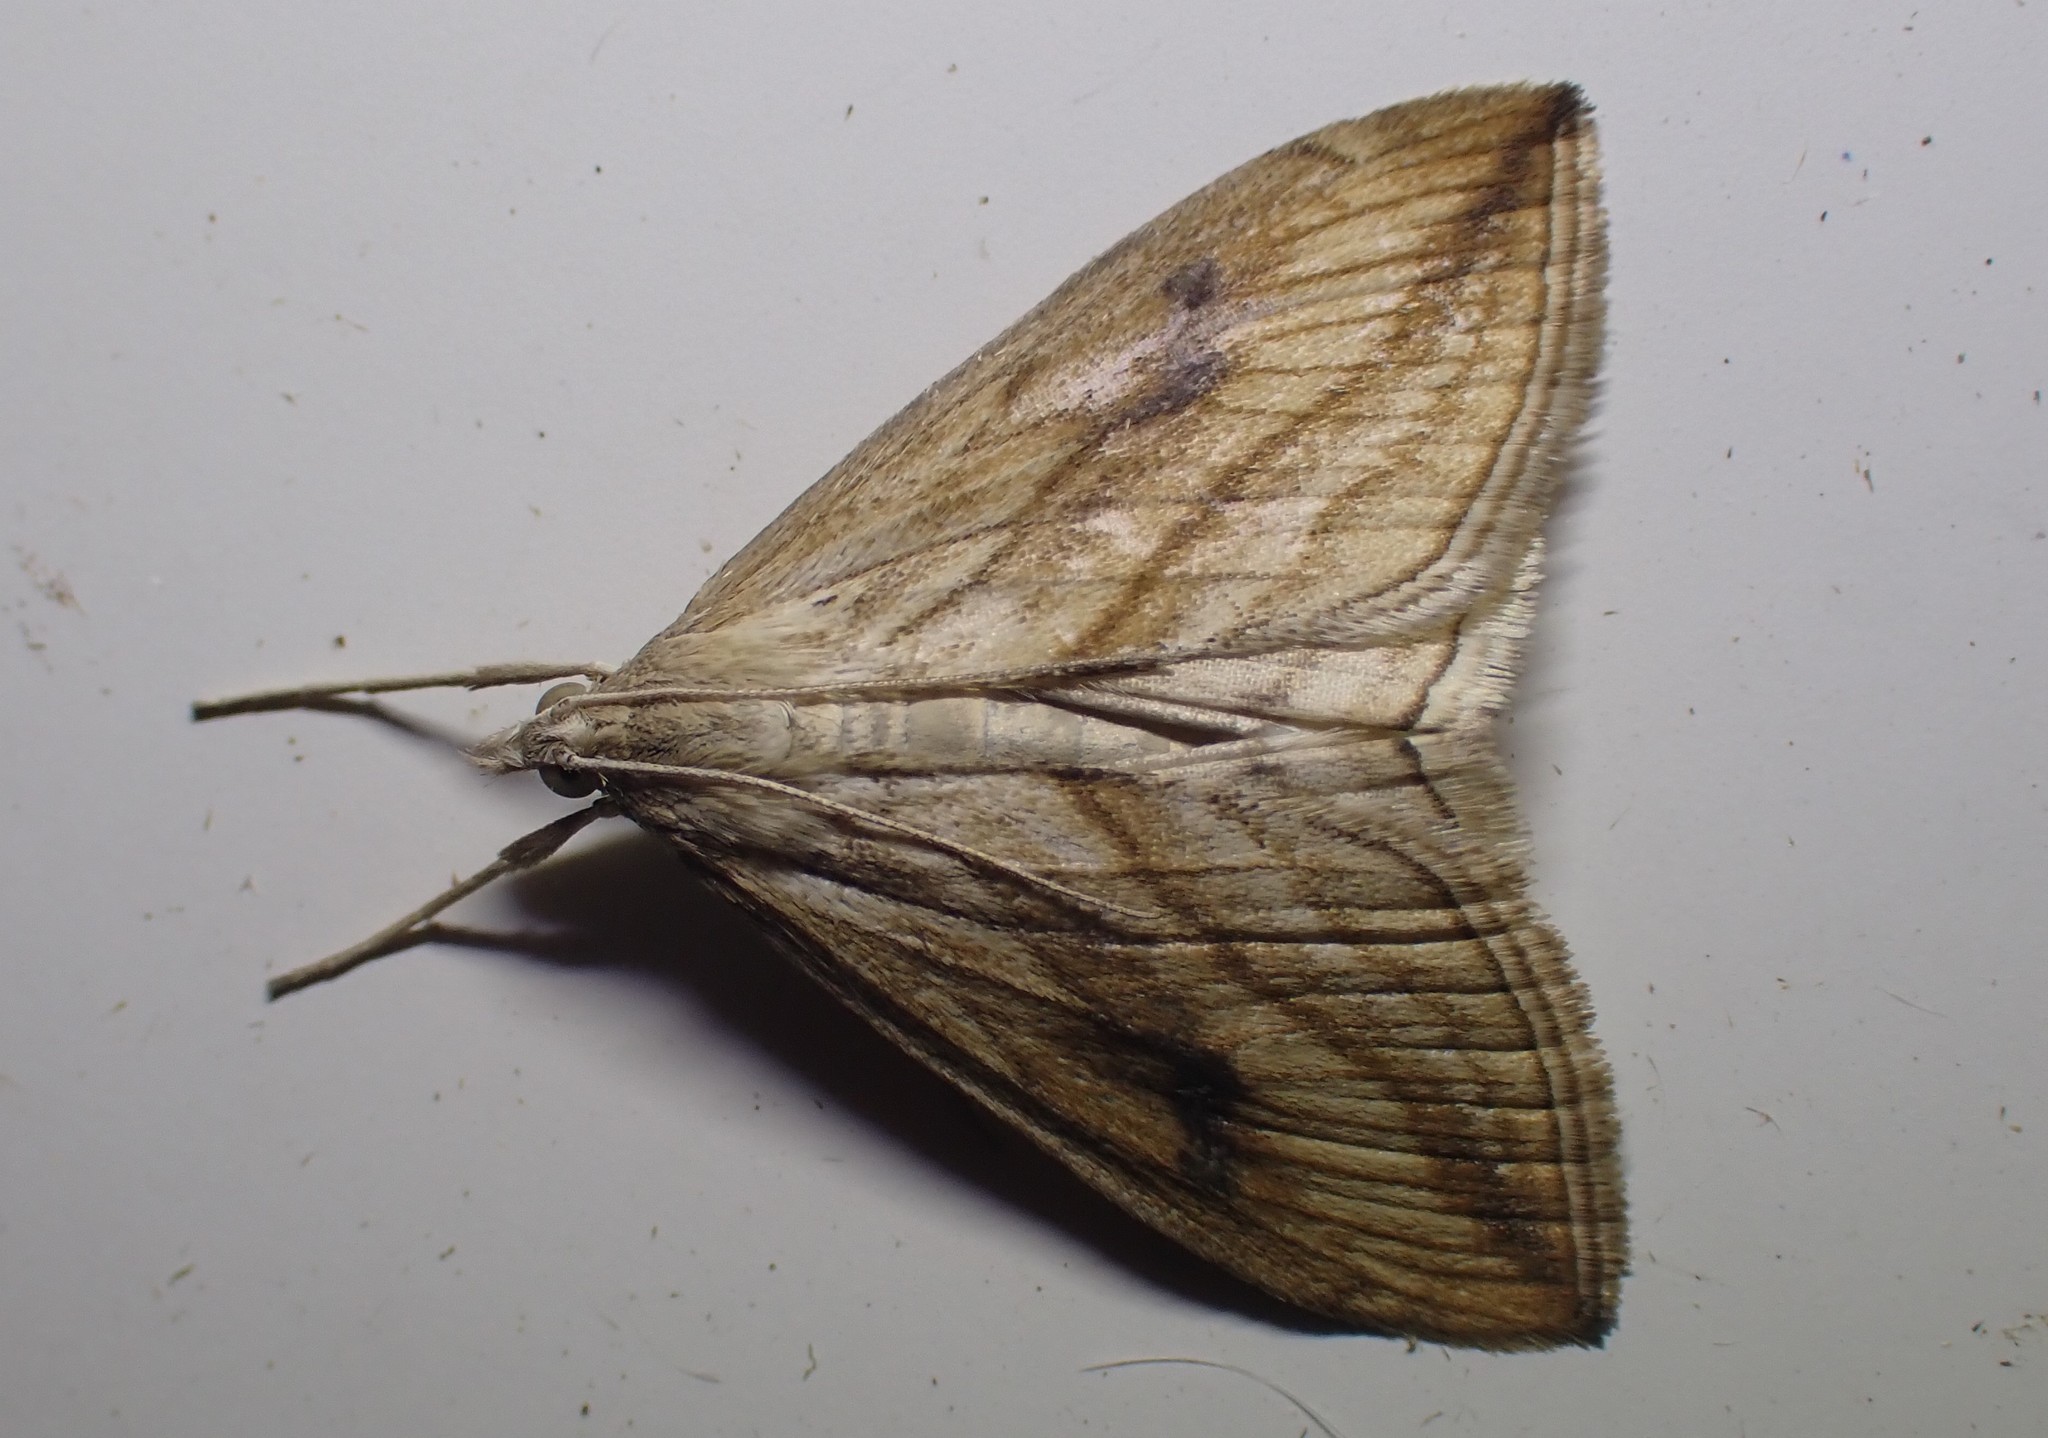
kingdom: Animalia
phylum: Arthropoda
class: Insecta
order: Lepidoptera
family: Crambidae
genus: Evergestis
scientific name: Evergestis forficalis
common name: Garden pebble
